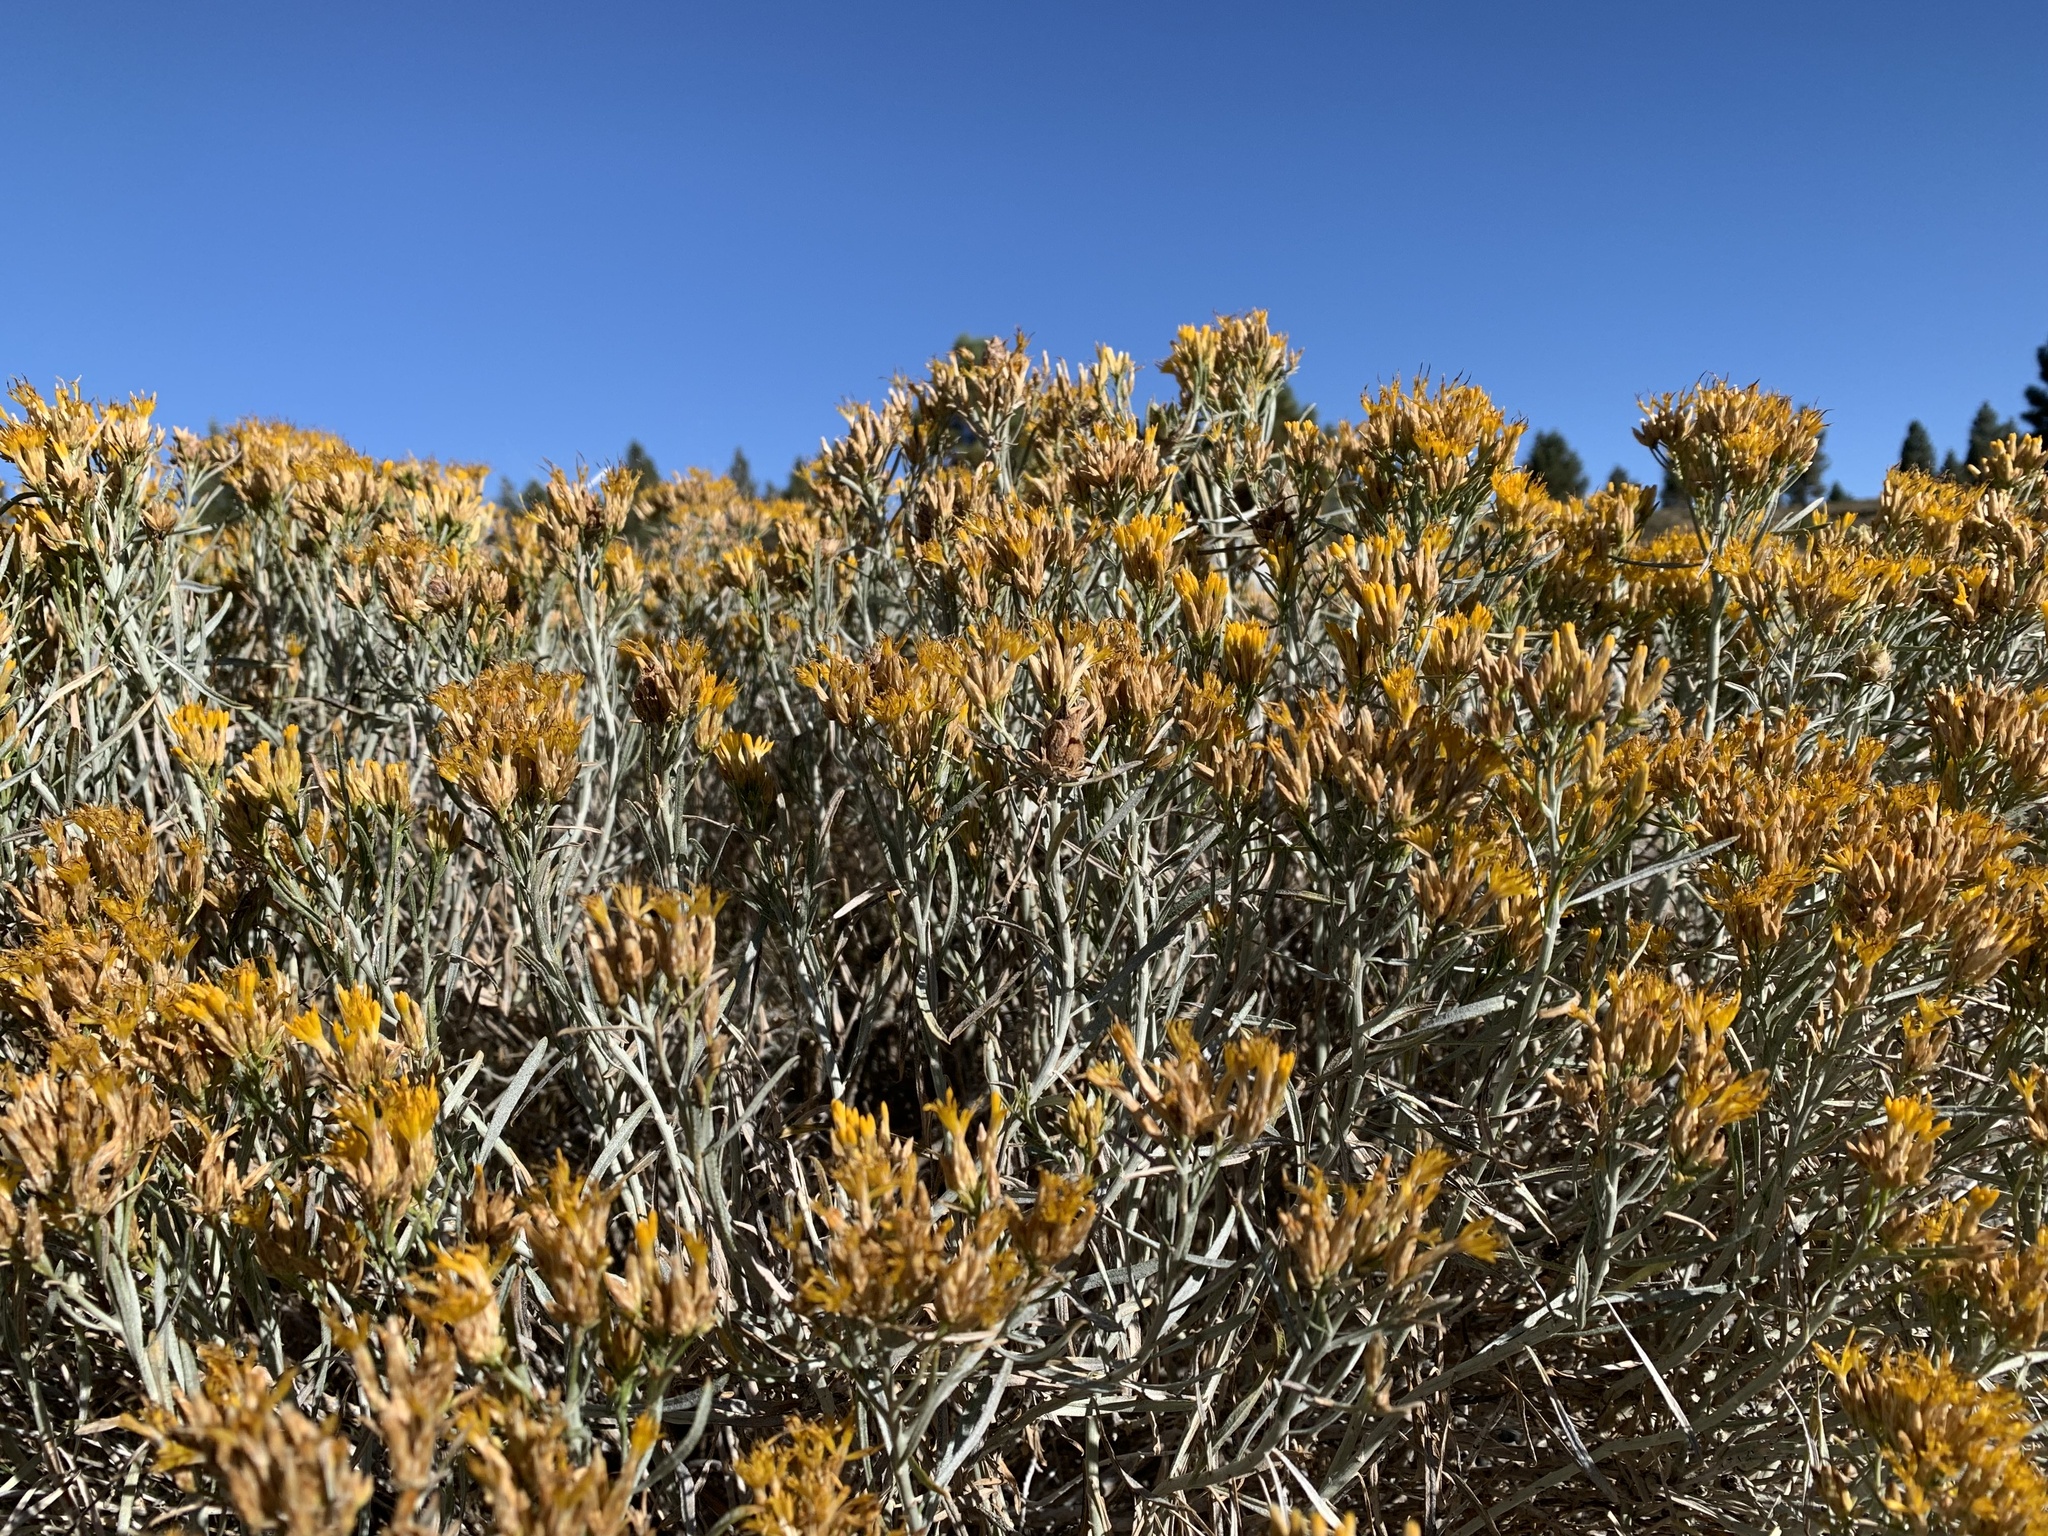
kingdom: Plantae
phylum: Tracheophyta
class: Magnoliopsida
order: Asterales
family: Asteraceae
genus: Ericameria
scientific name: Ericameria nauseosa
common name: Rubber rabbitbrush
